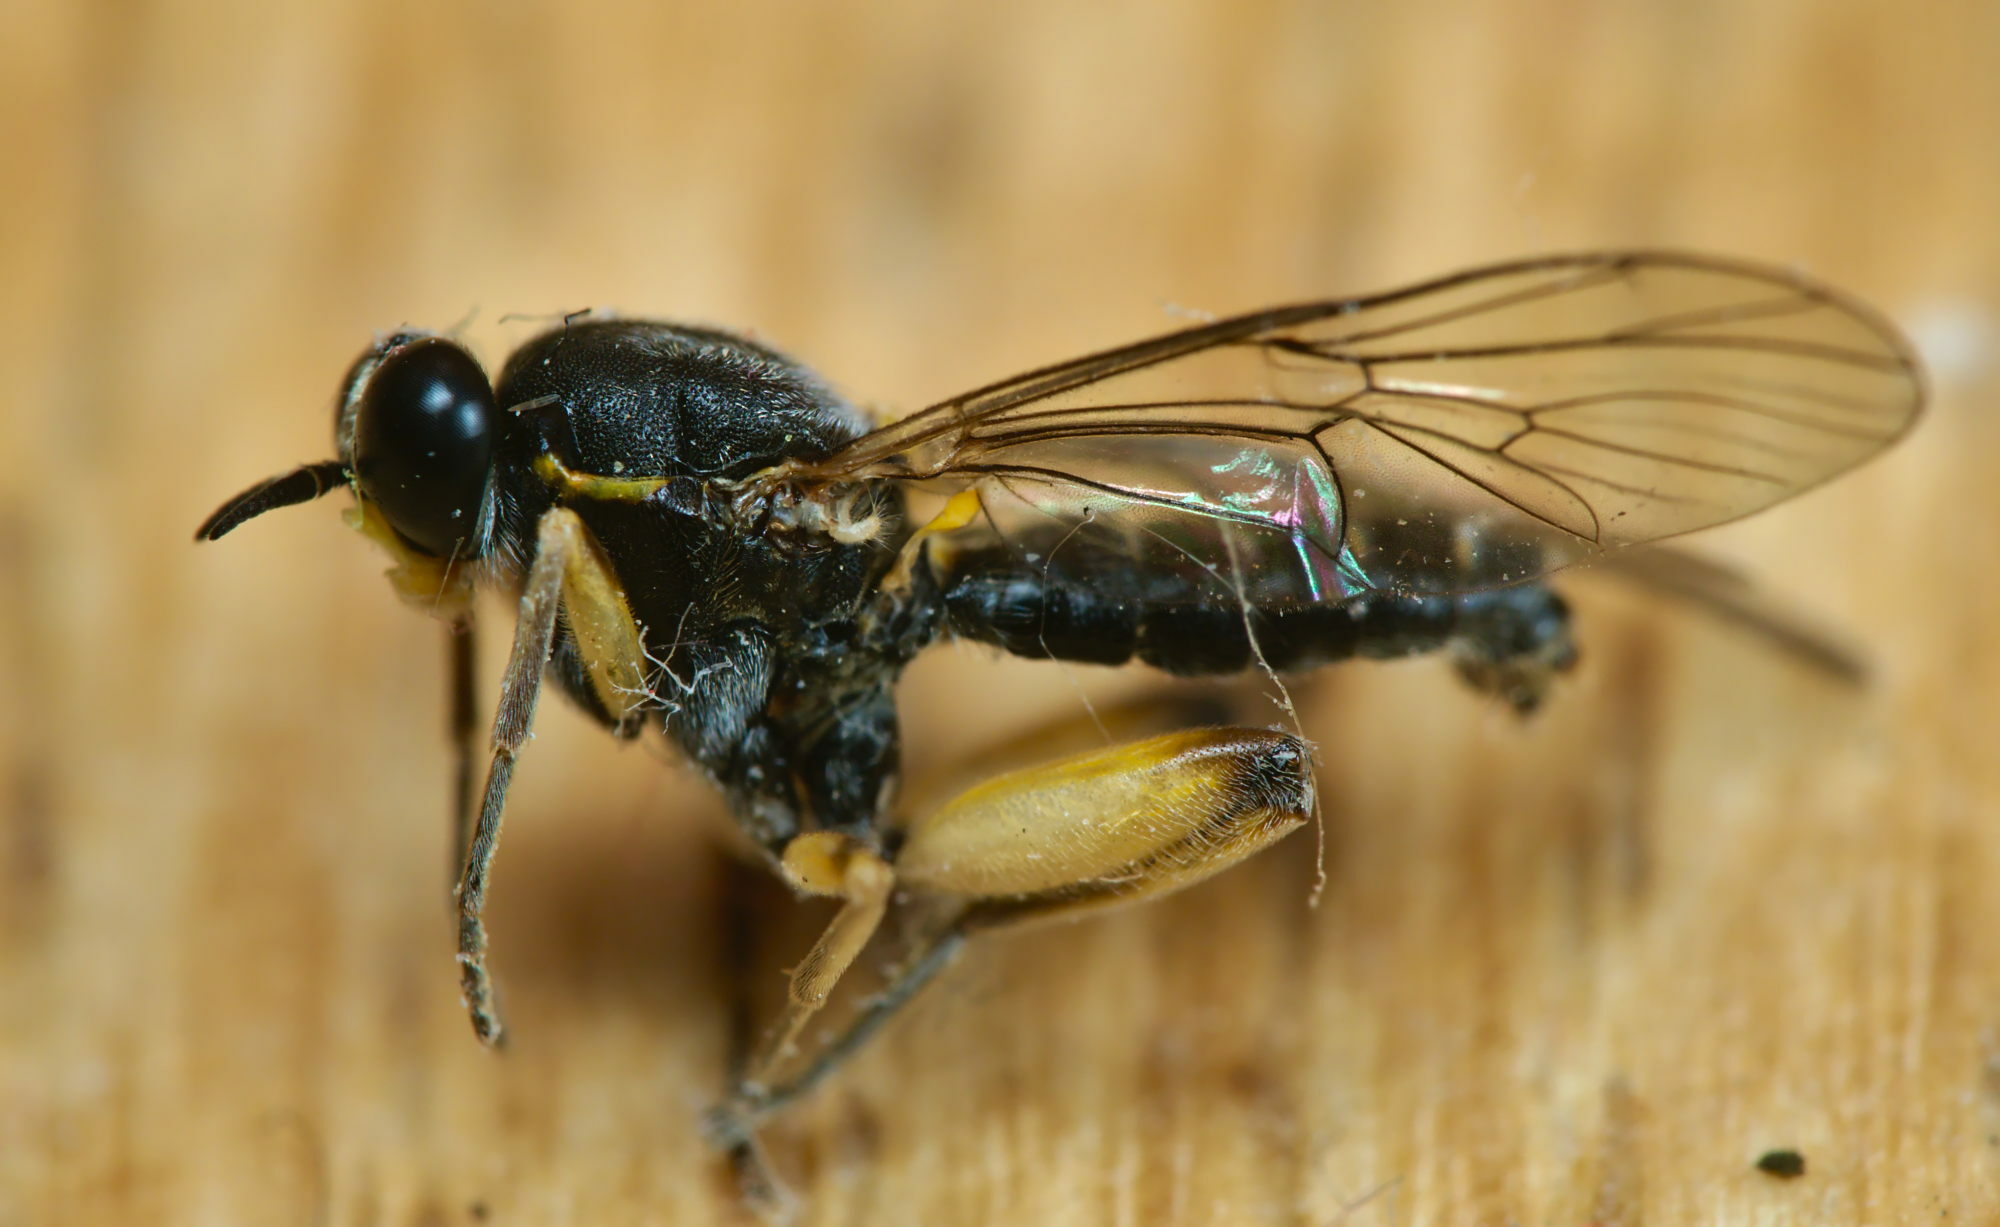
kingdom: Animalia
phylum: Arthropoda
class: Insecta
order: Diptera
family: Xylomyidae
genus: Solva
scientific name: Solva marginata
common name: Drab wood-soldierfly
